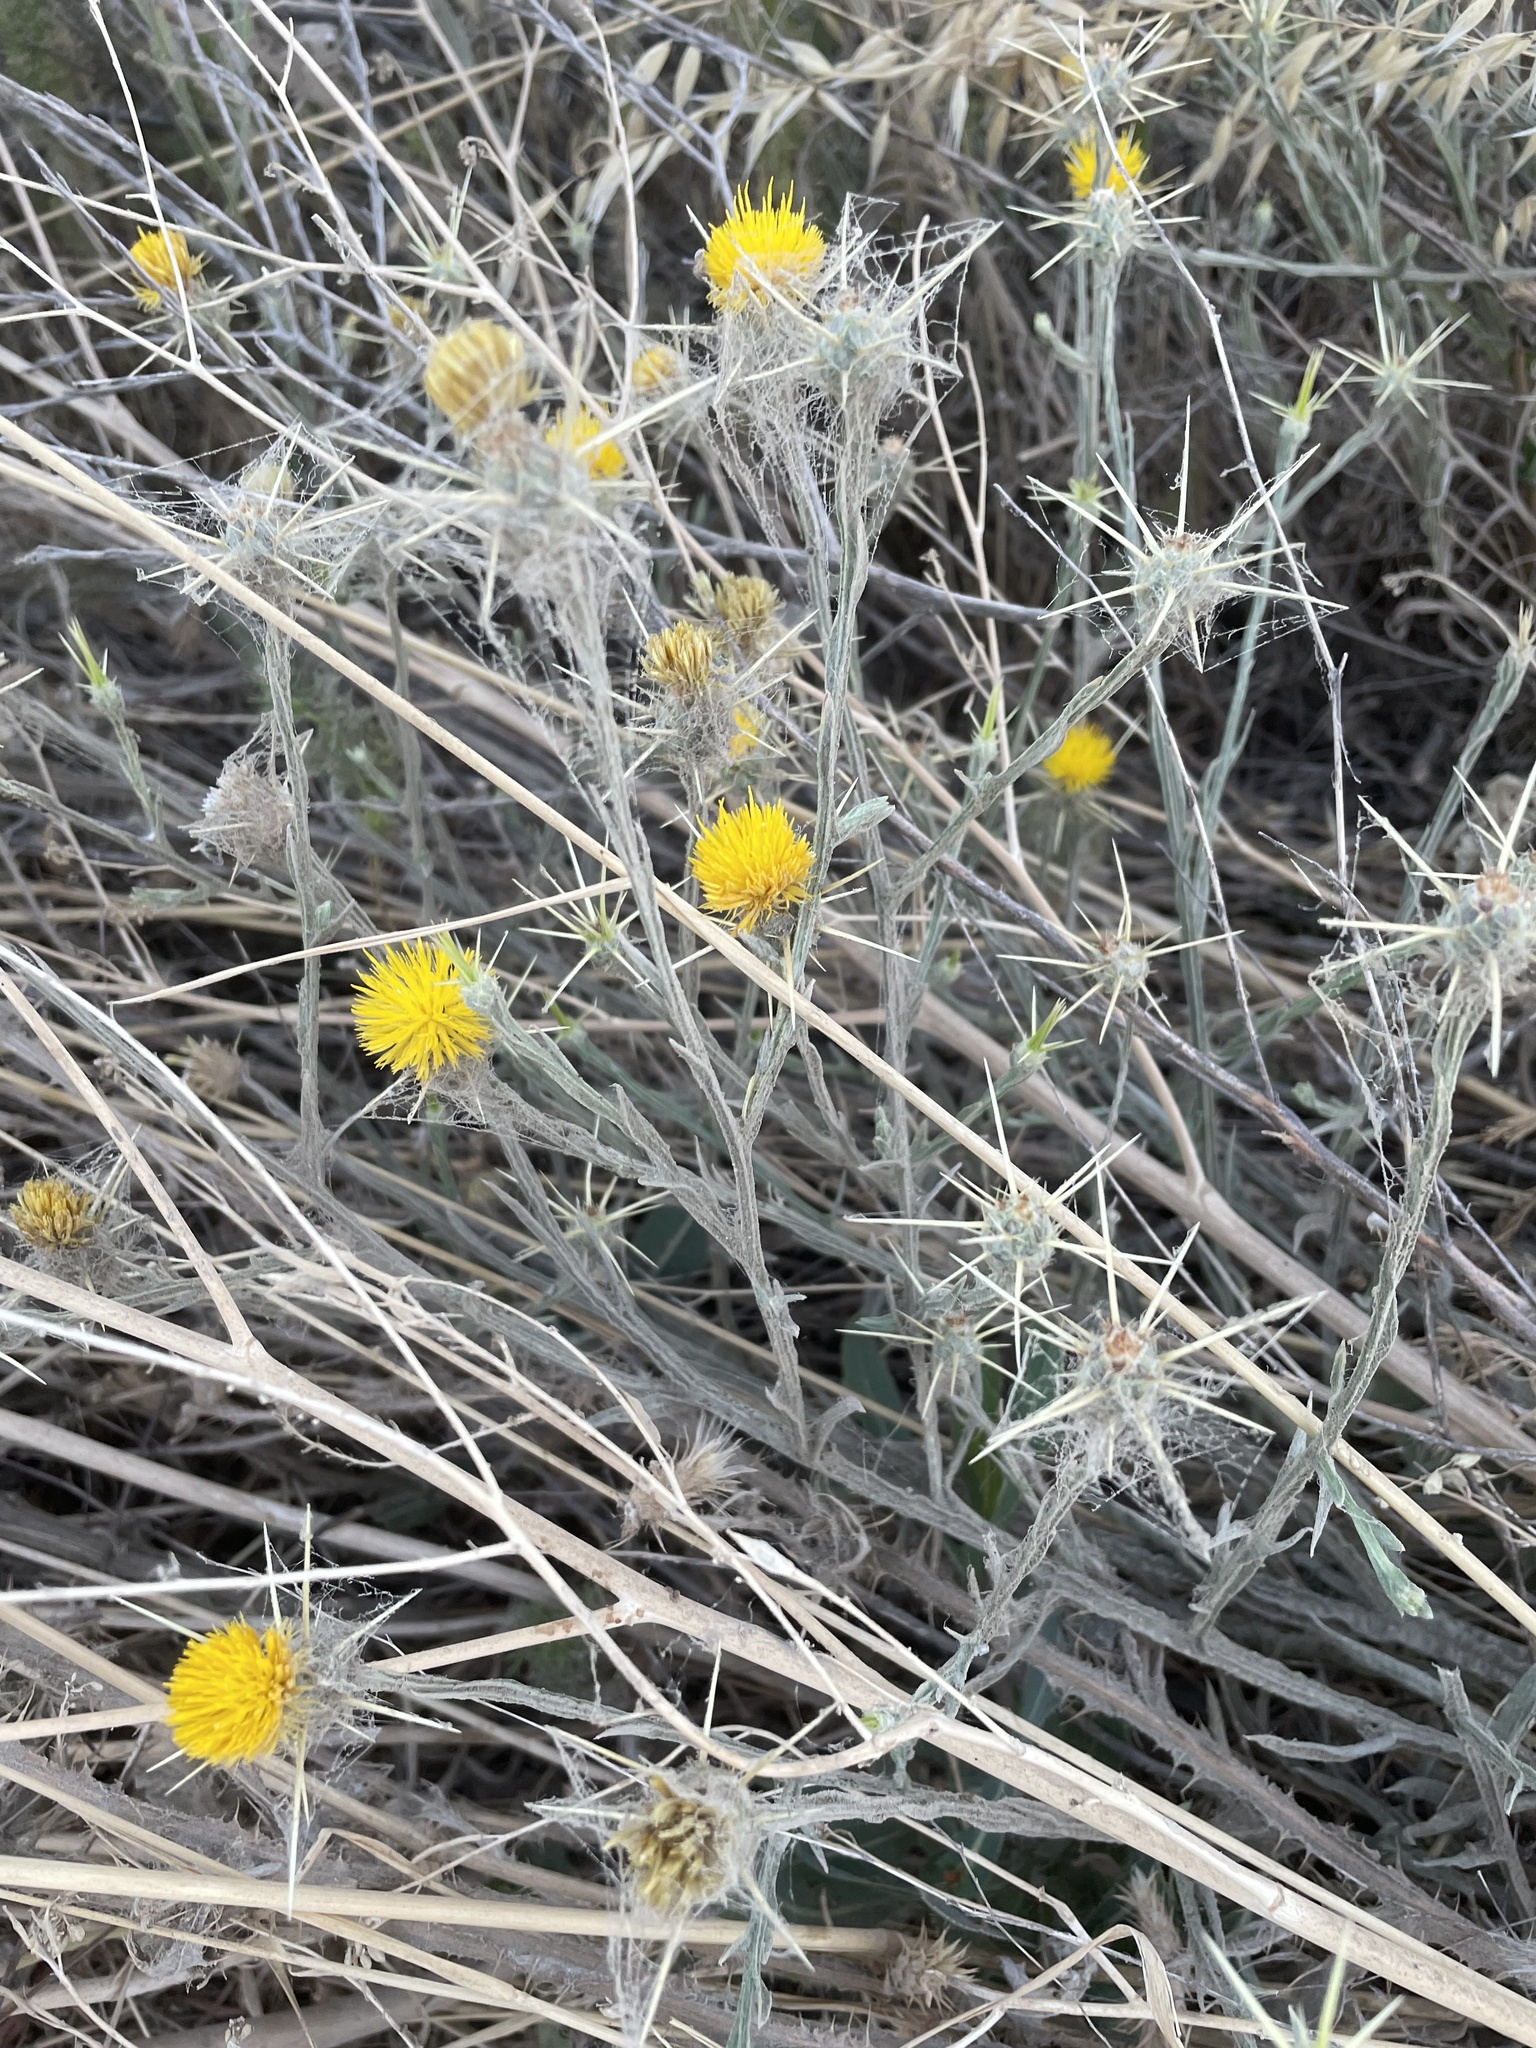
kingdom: Plantae
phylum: Tracheophyta
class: Magnoliopsida
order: Asterales
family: Asteraceae
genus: Centaurea
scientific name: Centaurea solstitialis
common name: Yellow star-thistle
